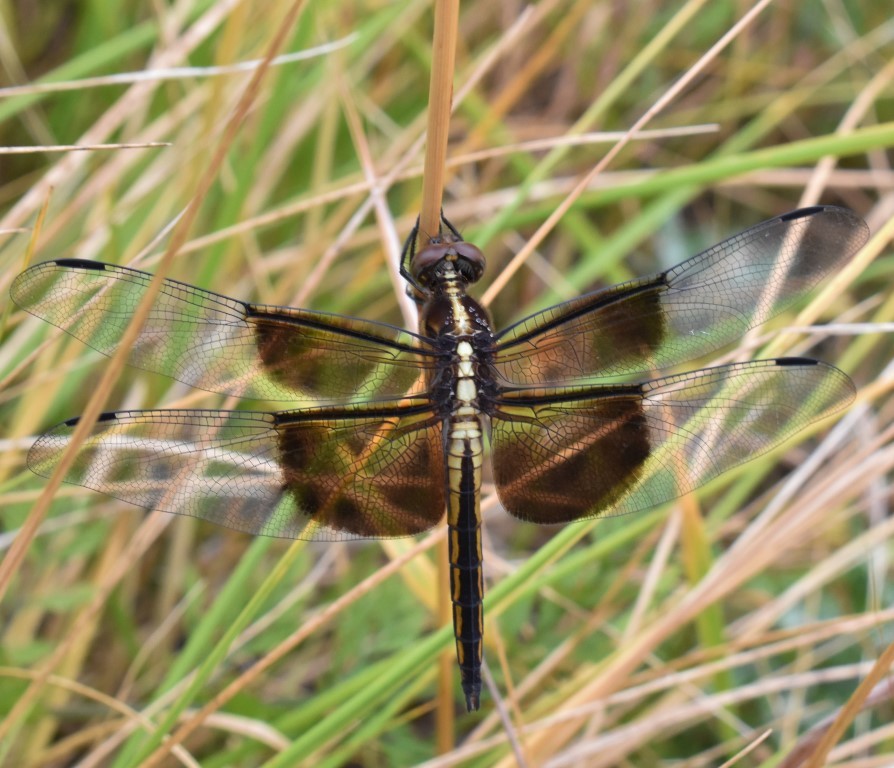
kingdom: Animalia
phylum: Arthropoda
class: Insecta
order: Odonata
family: Libellulidae
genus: Libellula
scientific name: Libellula luctuosa
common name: Widow skimmer
